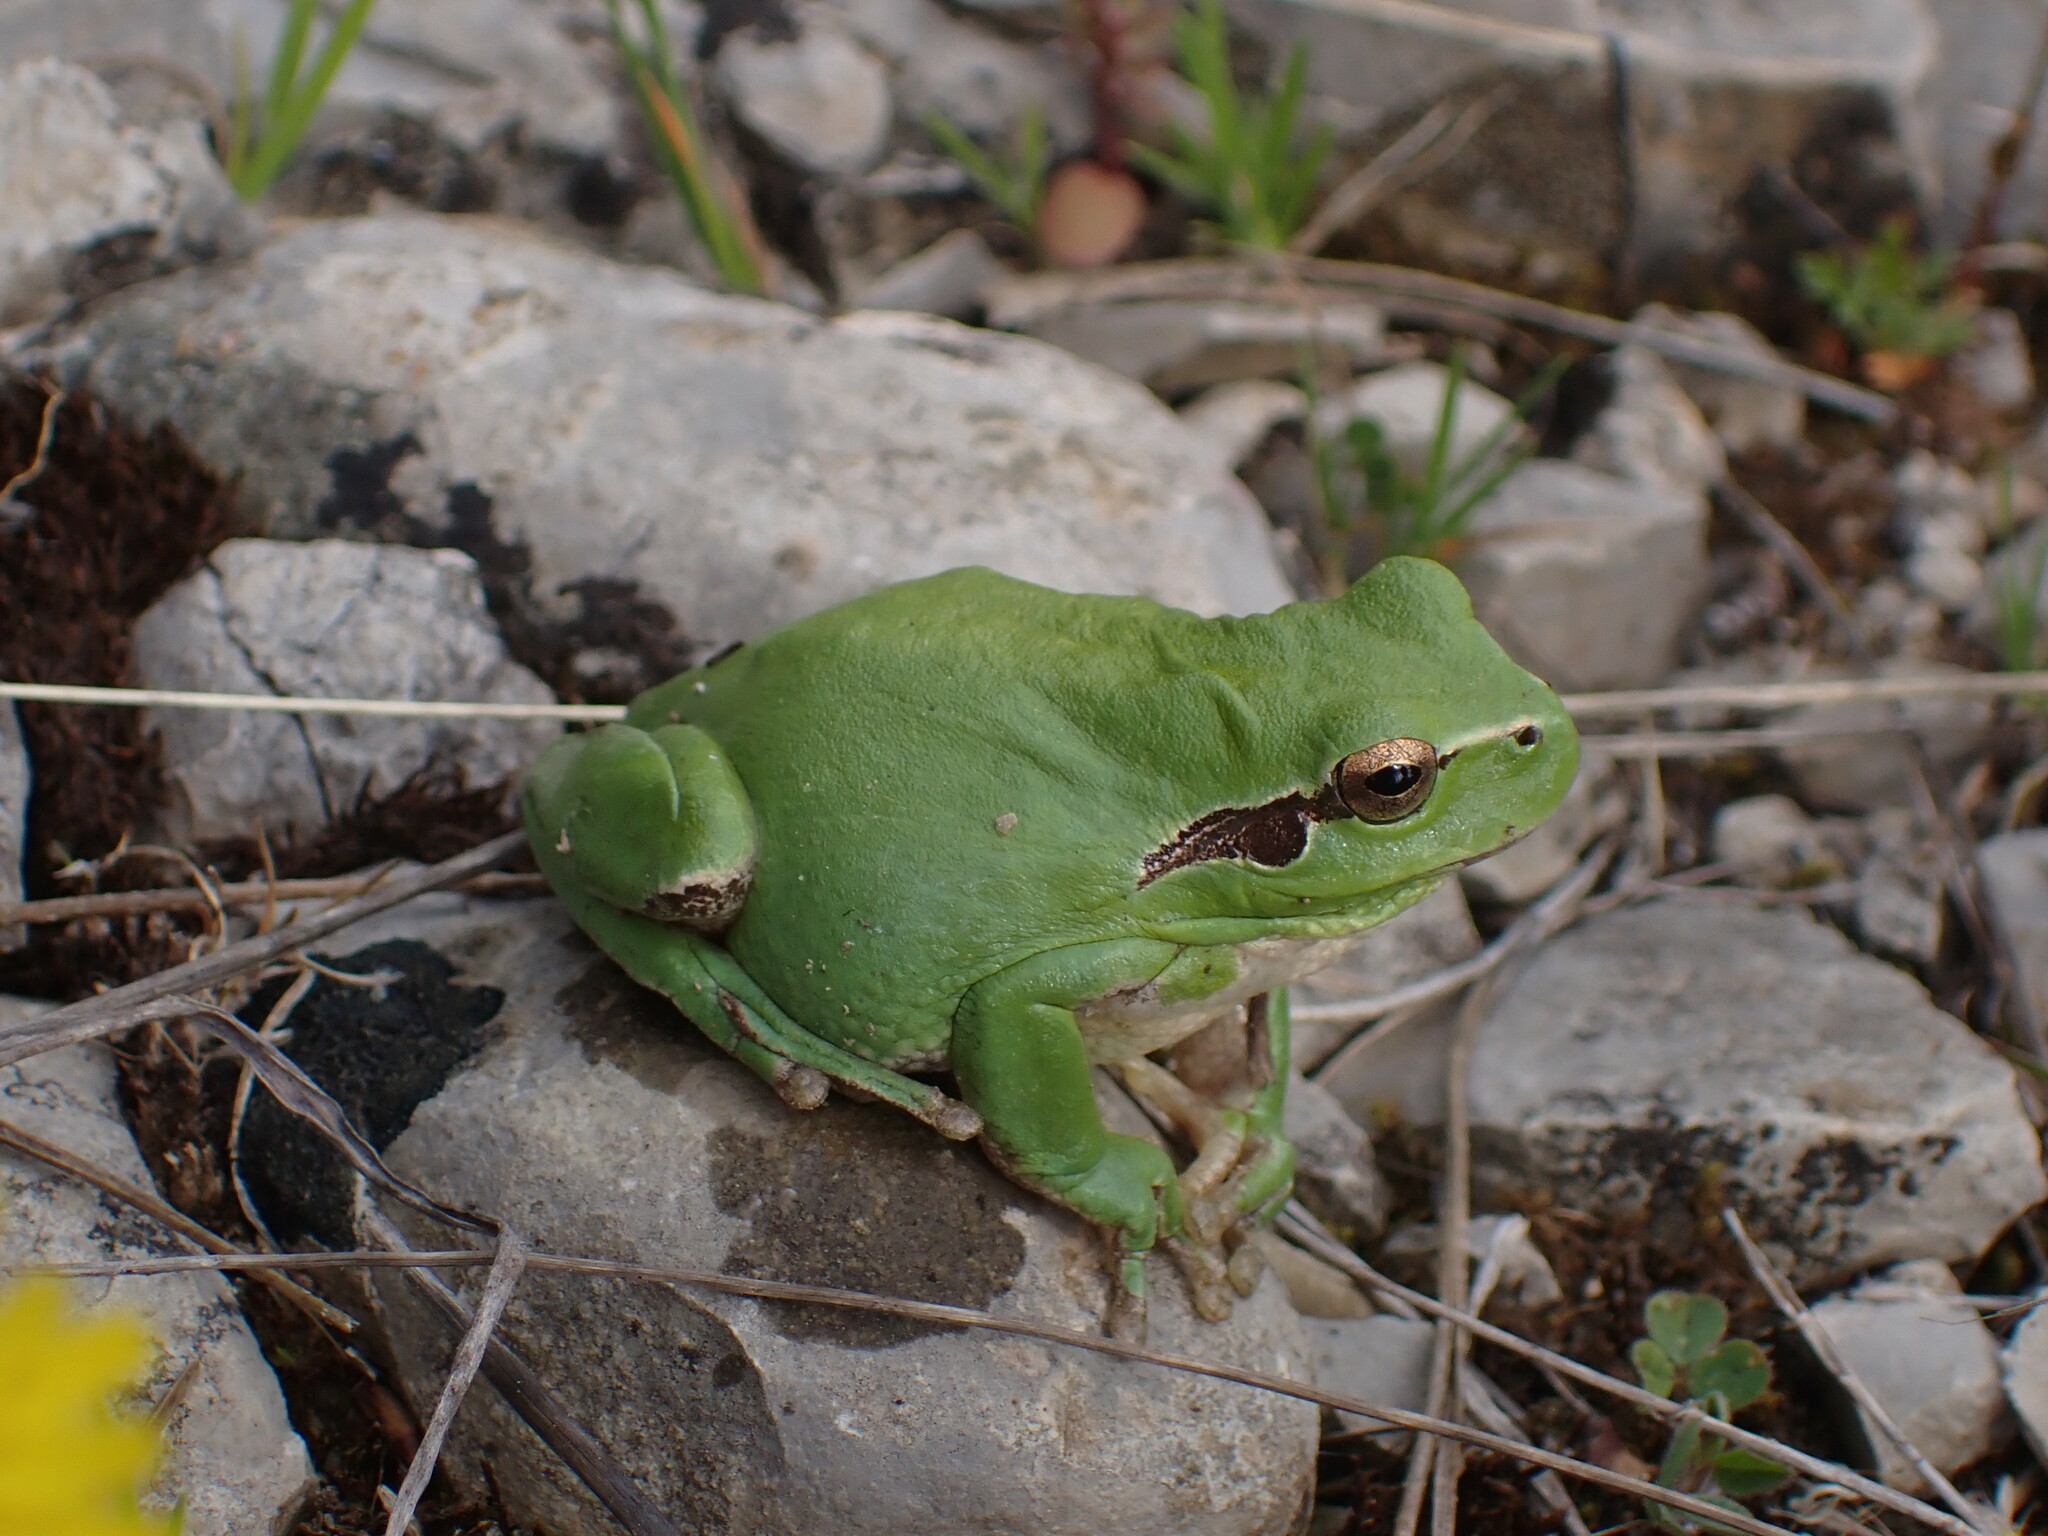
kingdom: Animalia
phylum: Chordata
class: Amphibia
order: Anura
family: Hylidae
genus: Hyla
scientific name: Hyla meridionalis
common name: Stripeless tree frog
